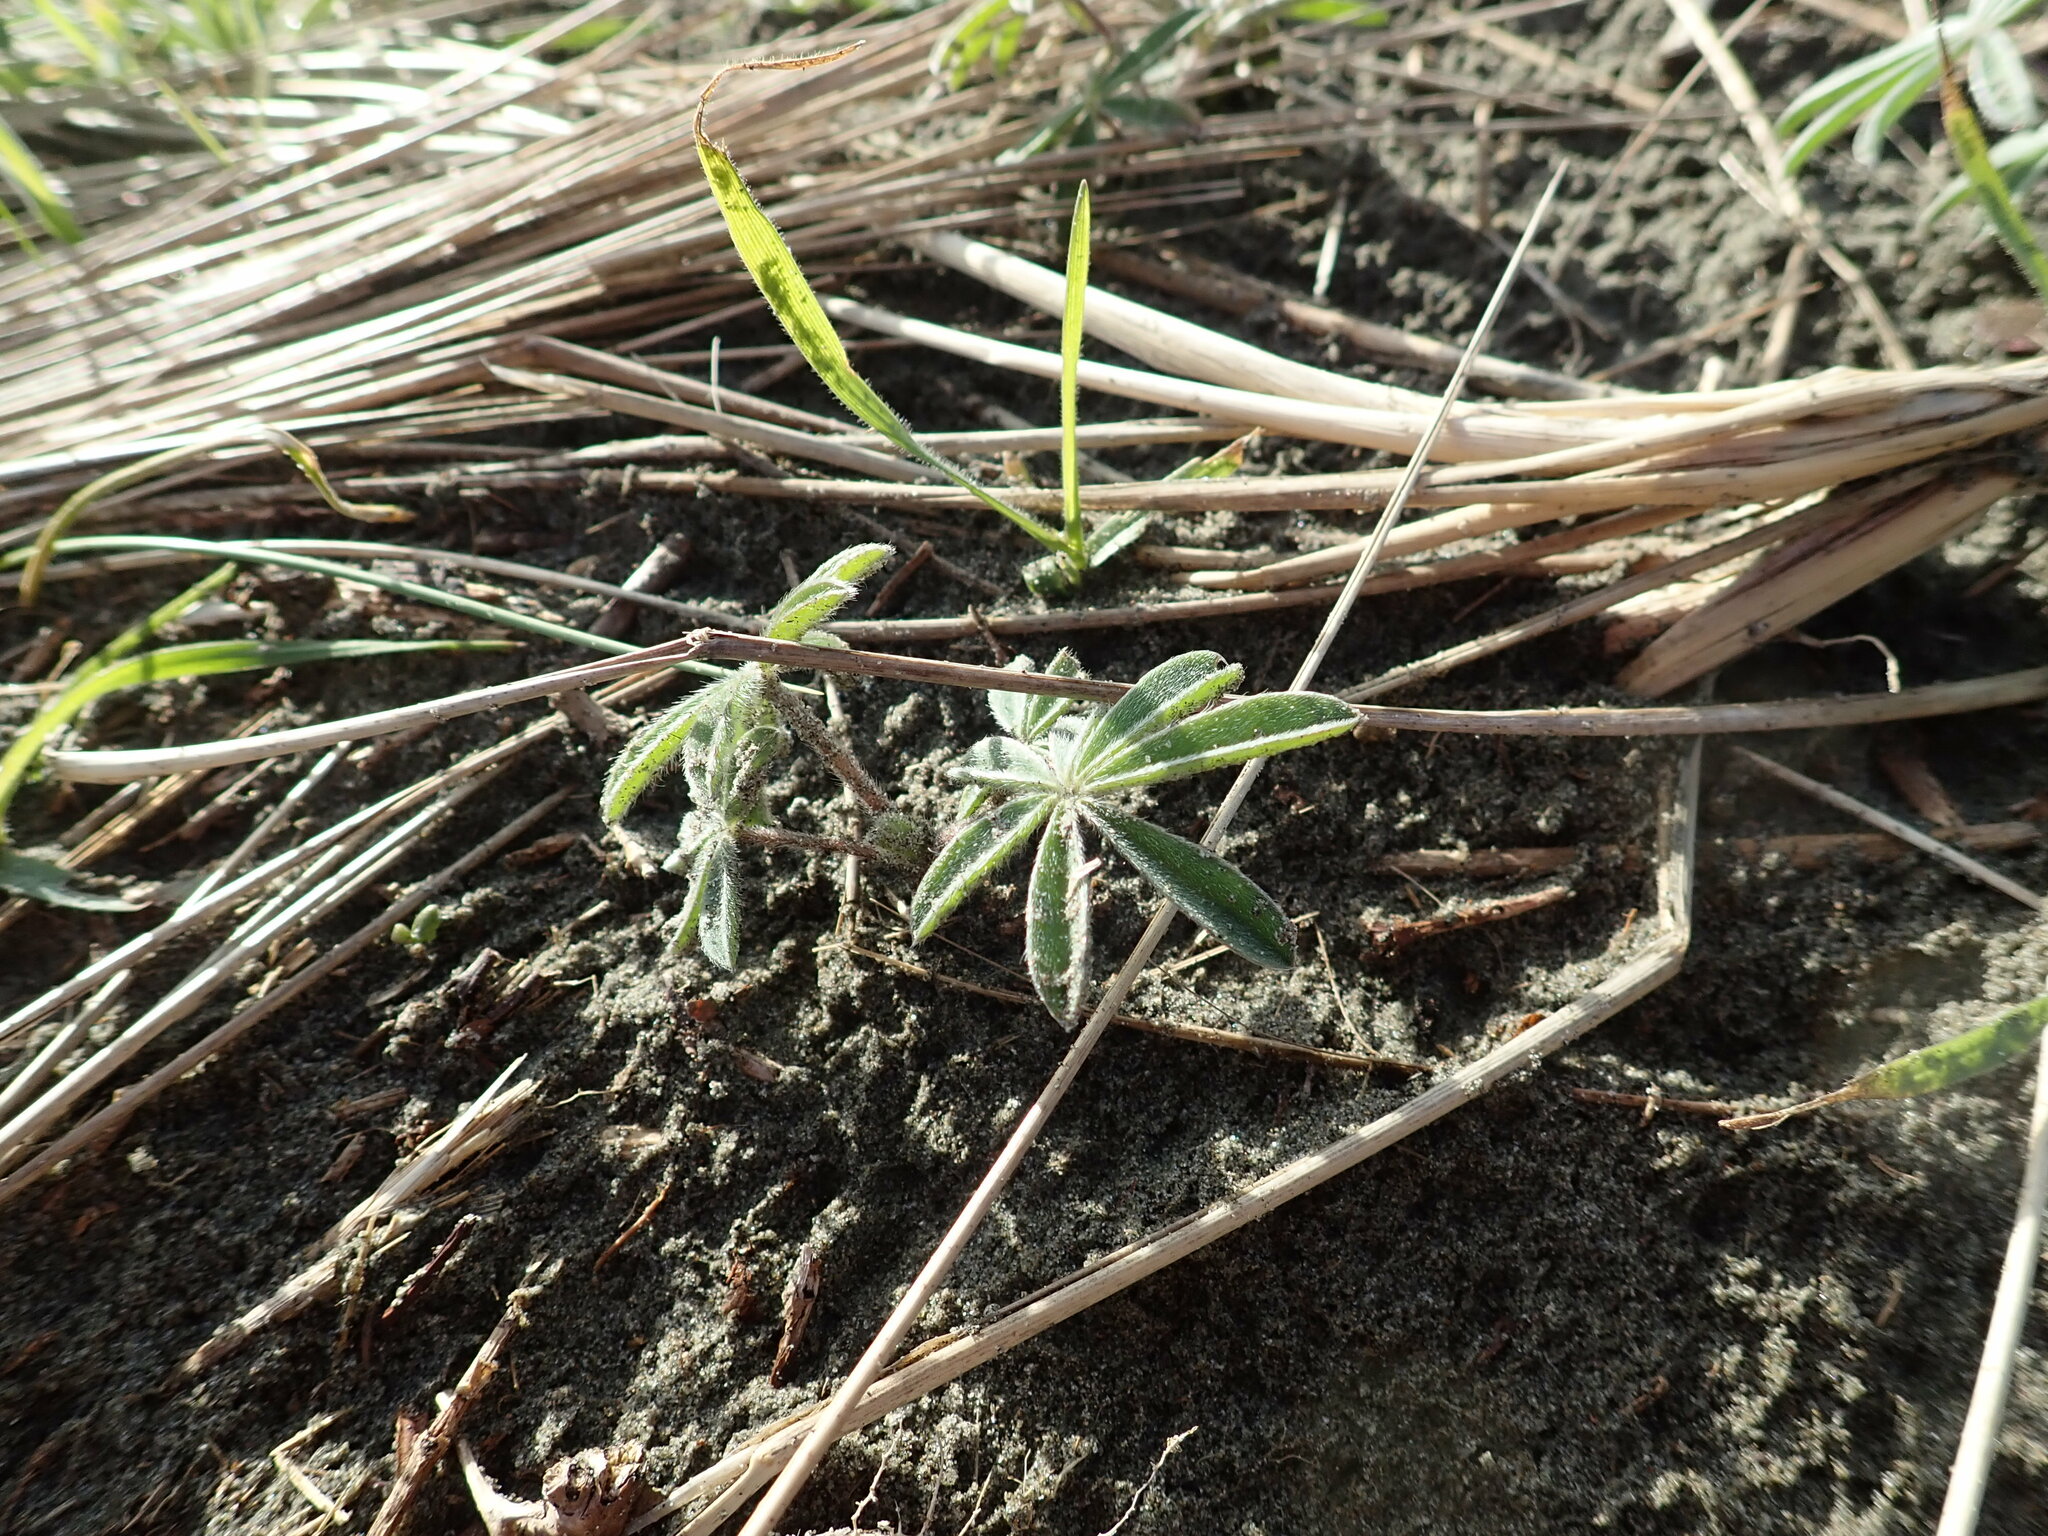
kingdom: Plantae
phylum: Tracheophyta
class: Magnoliopsida
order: Fabales
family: Fabaceae
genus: Lupinus
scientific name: Lupinus arboreus
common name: Yellow bush lupine
